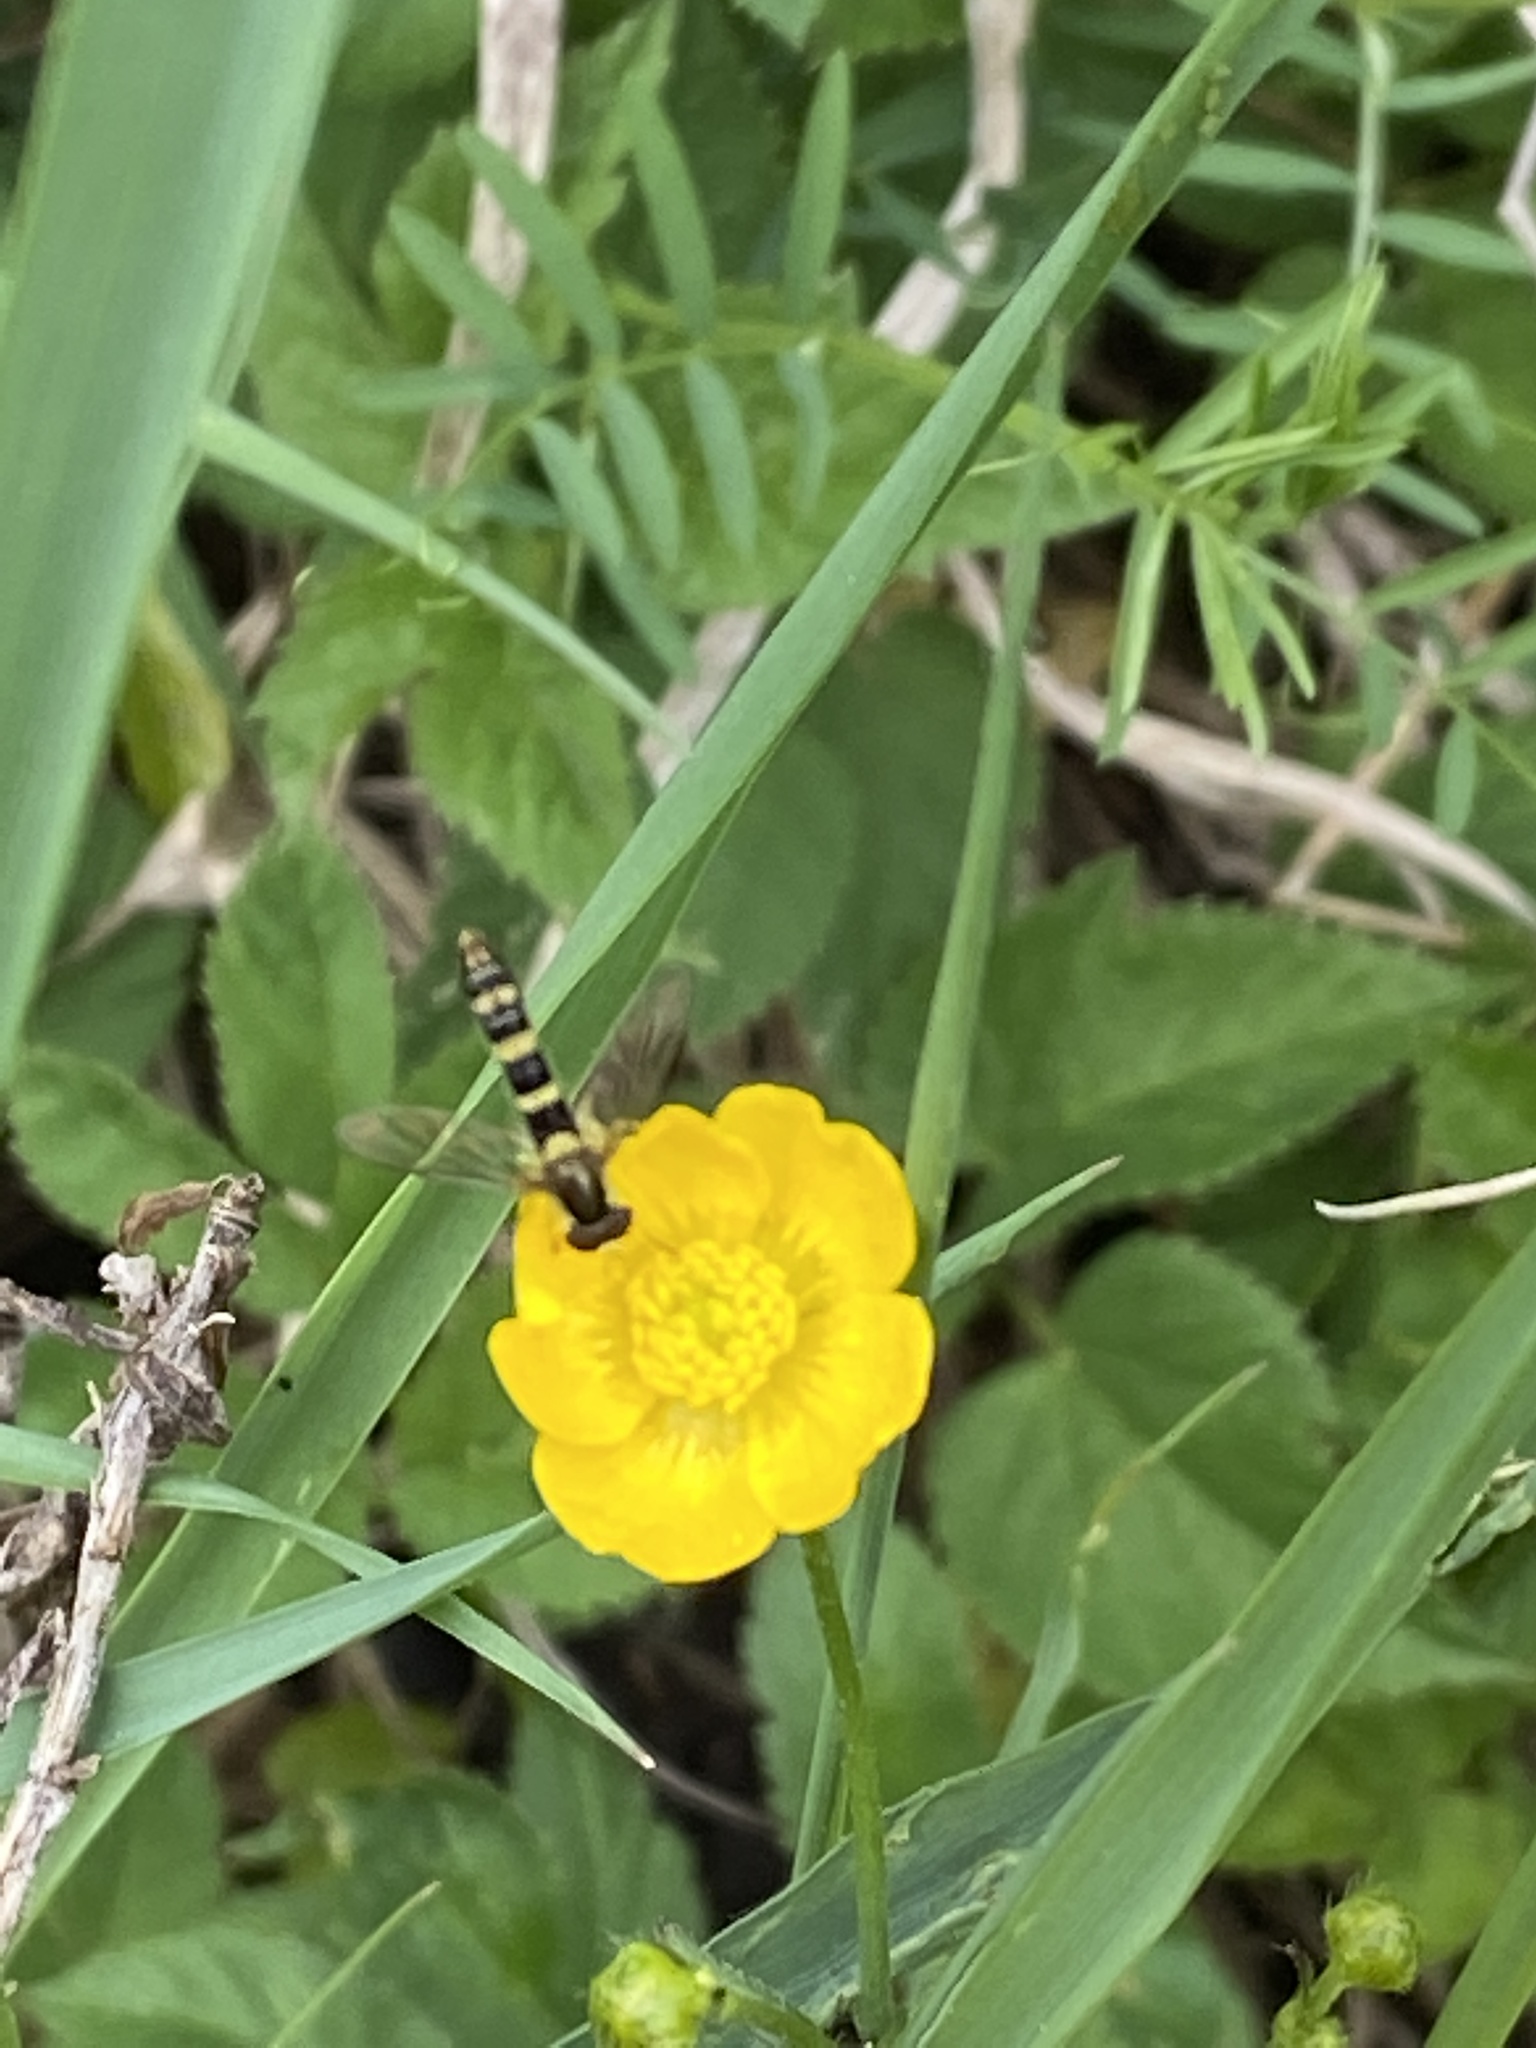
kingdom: Animalia
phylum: Arthropoda
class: Insecta
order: Diptera
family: Syrphidae
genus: Sphaerophoria
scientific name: Sphaerophoria scripta
